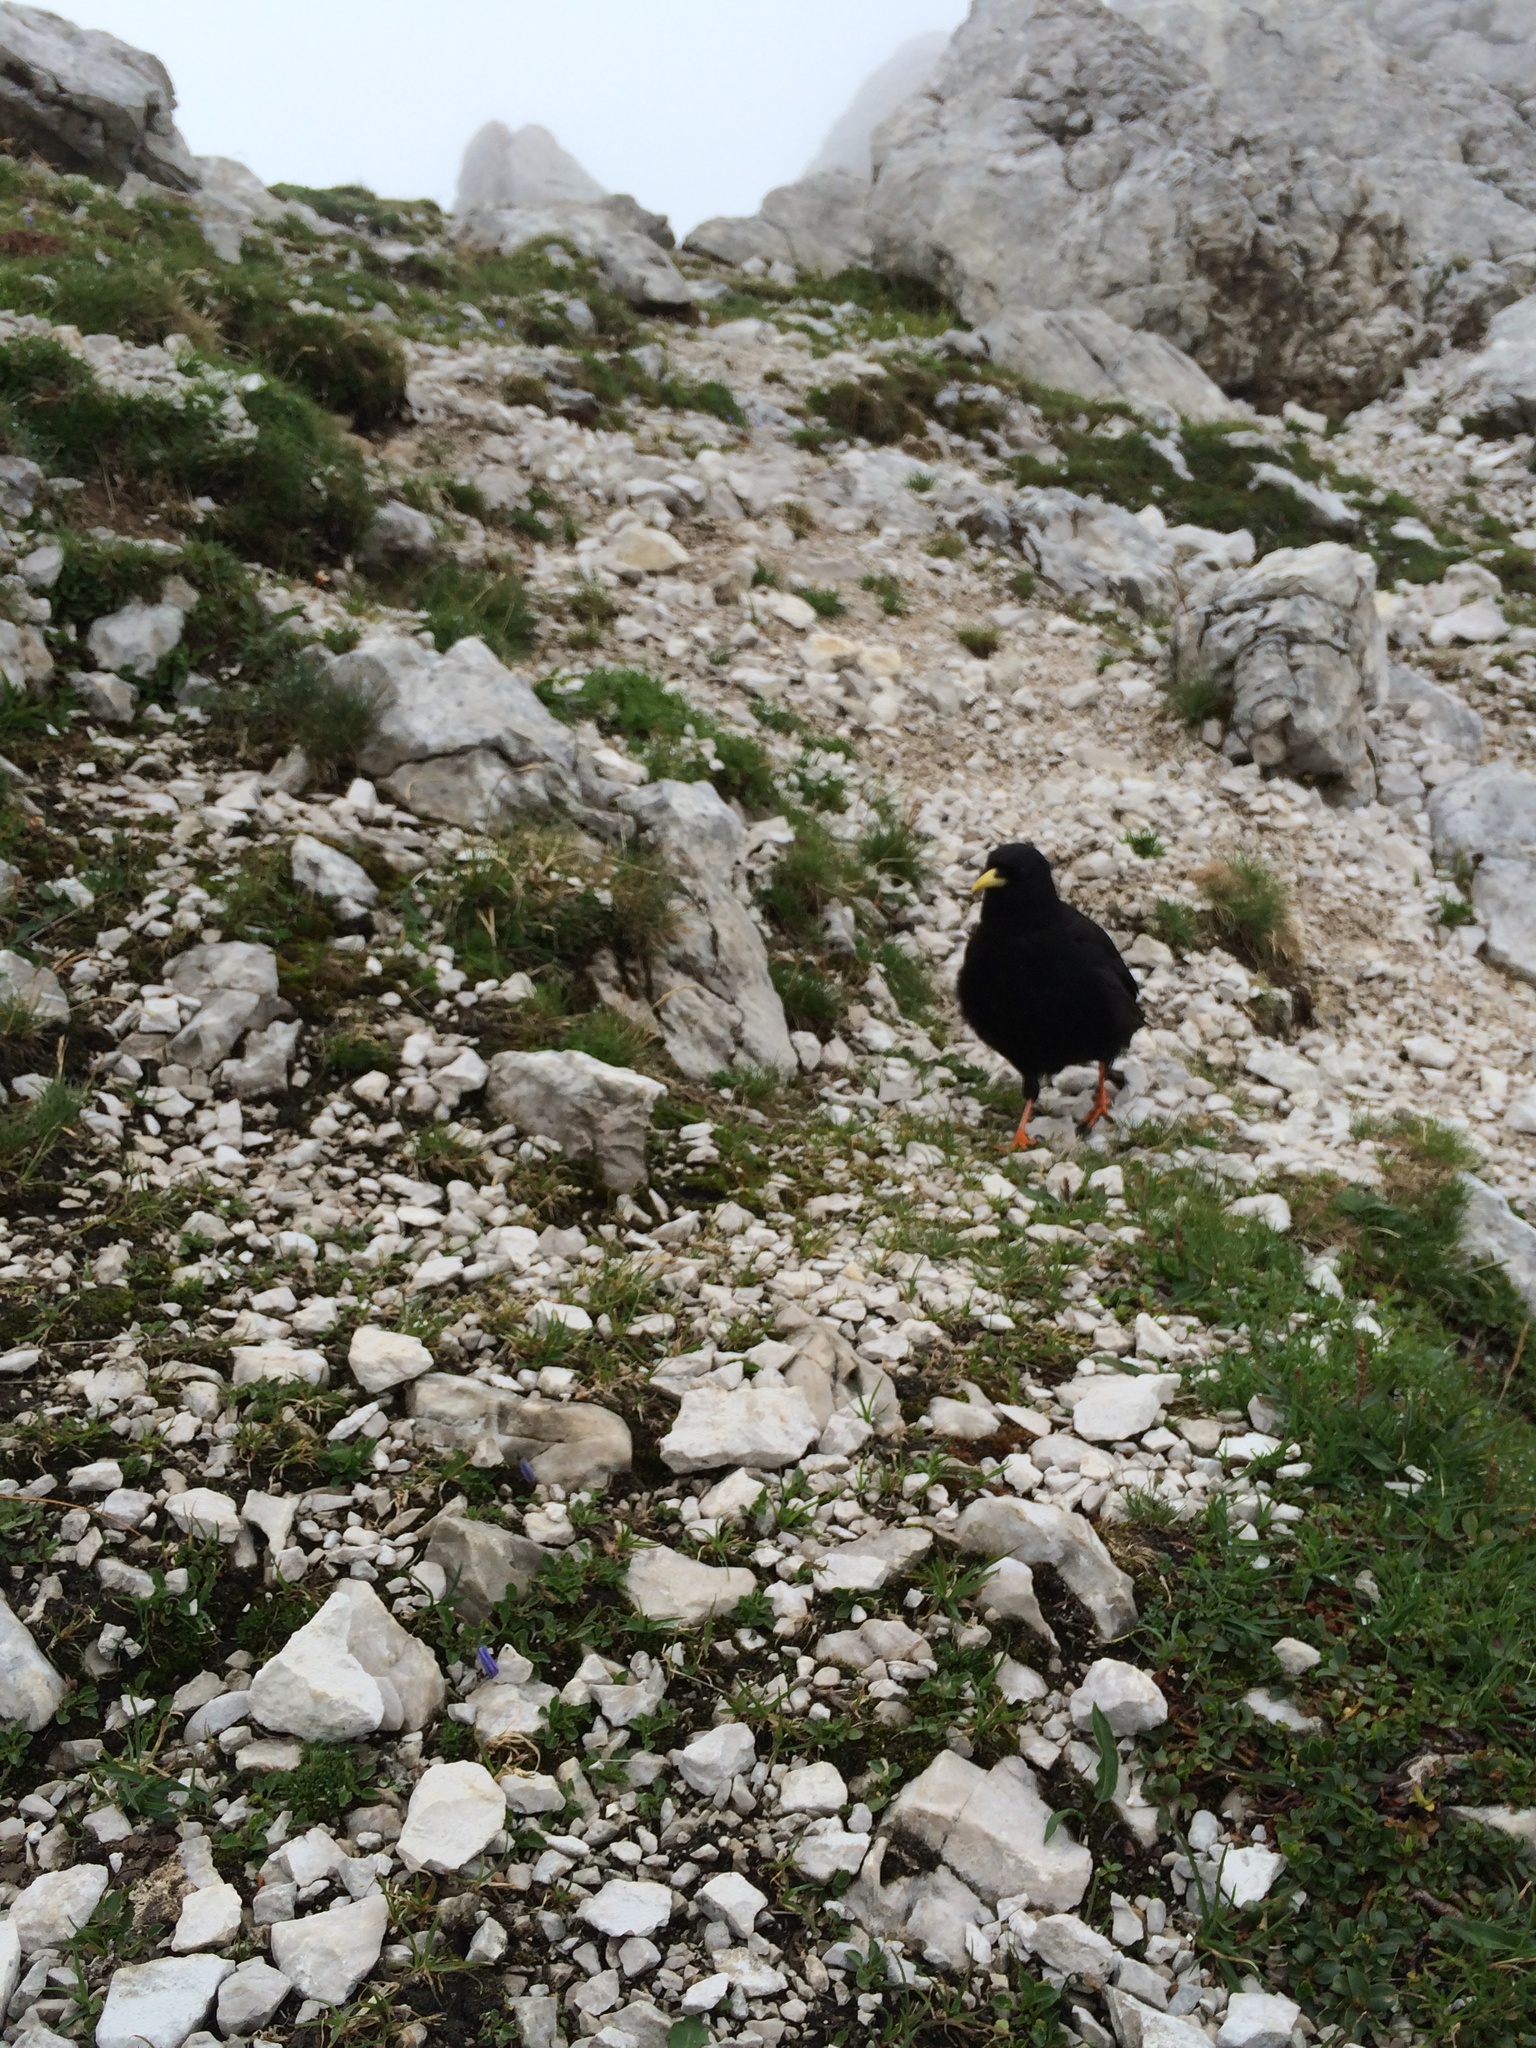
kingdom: Animalia
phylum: Chordata
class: Aves
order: Passeriformes
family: Corvidae
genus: Pyrrhocorax
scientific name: Pyrrhocorax graculus
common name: Alpine chough
